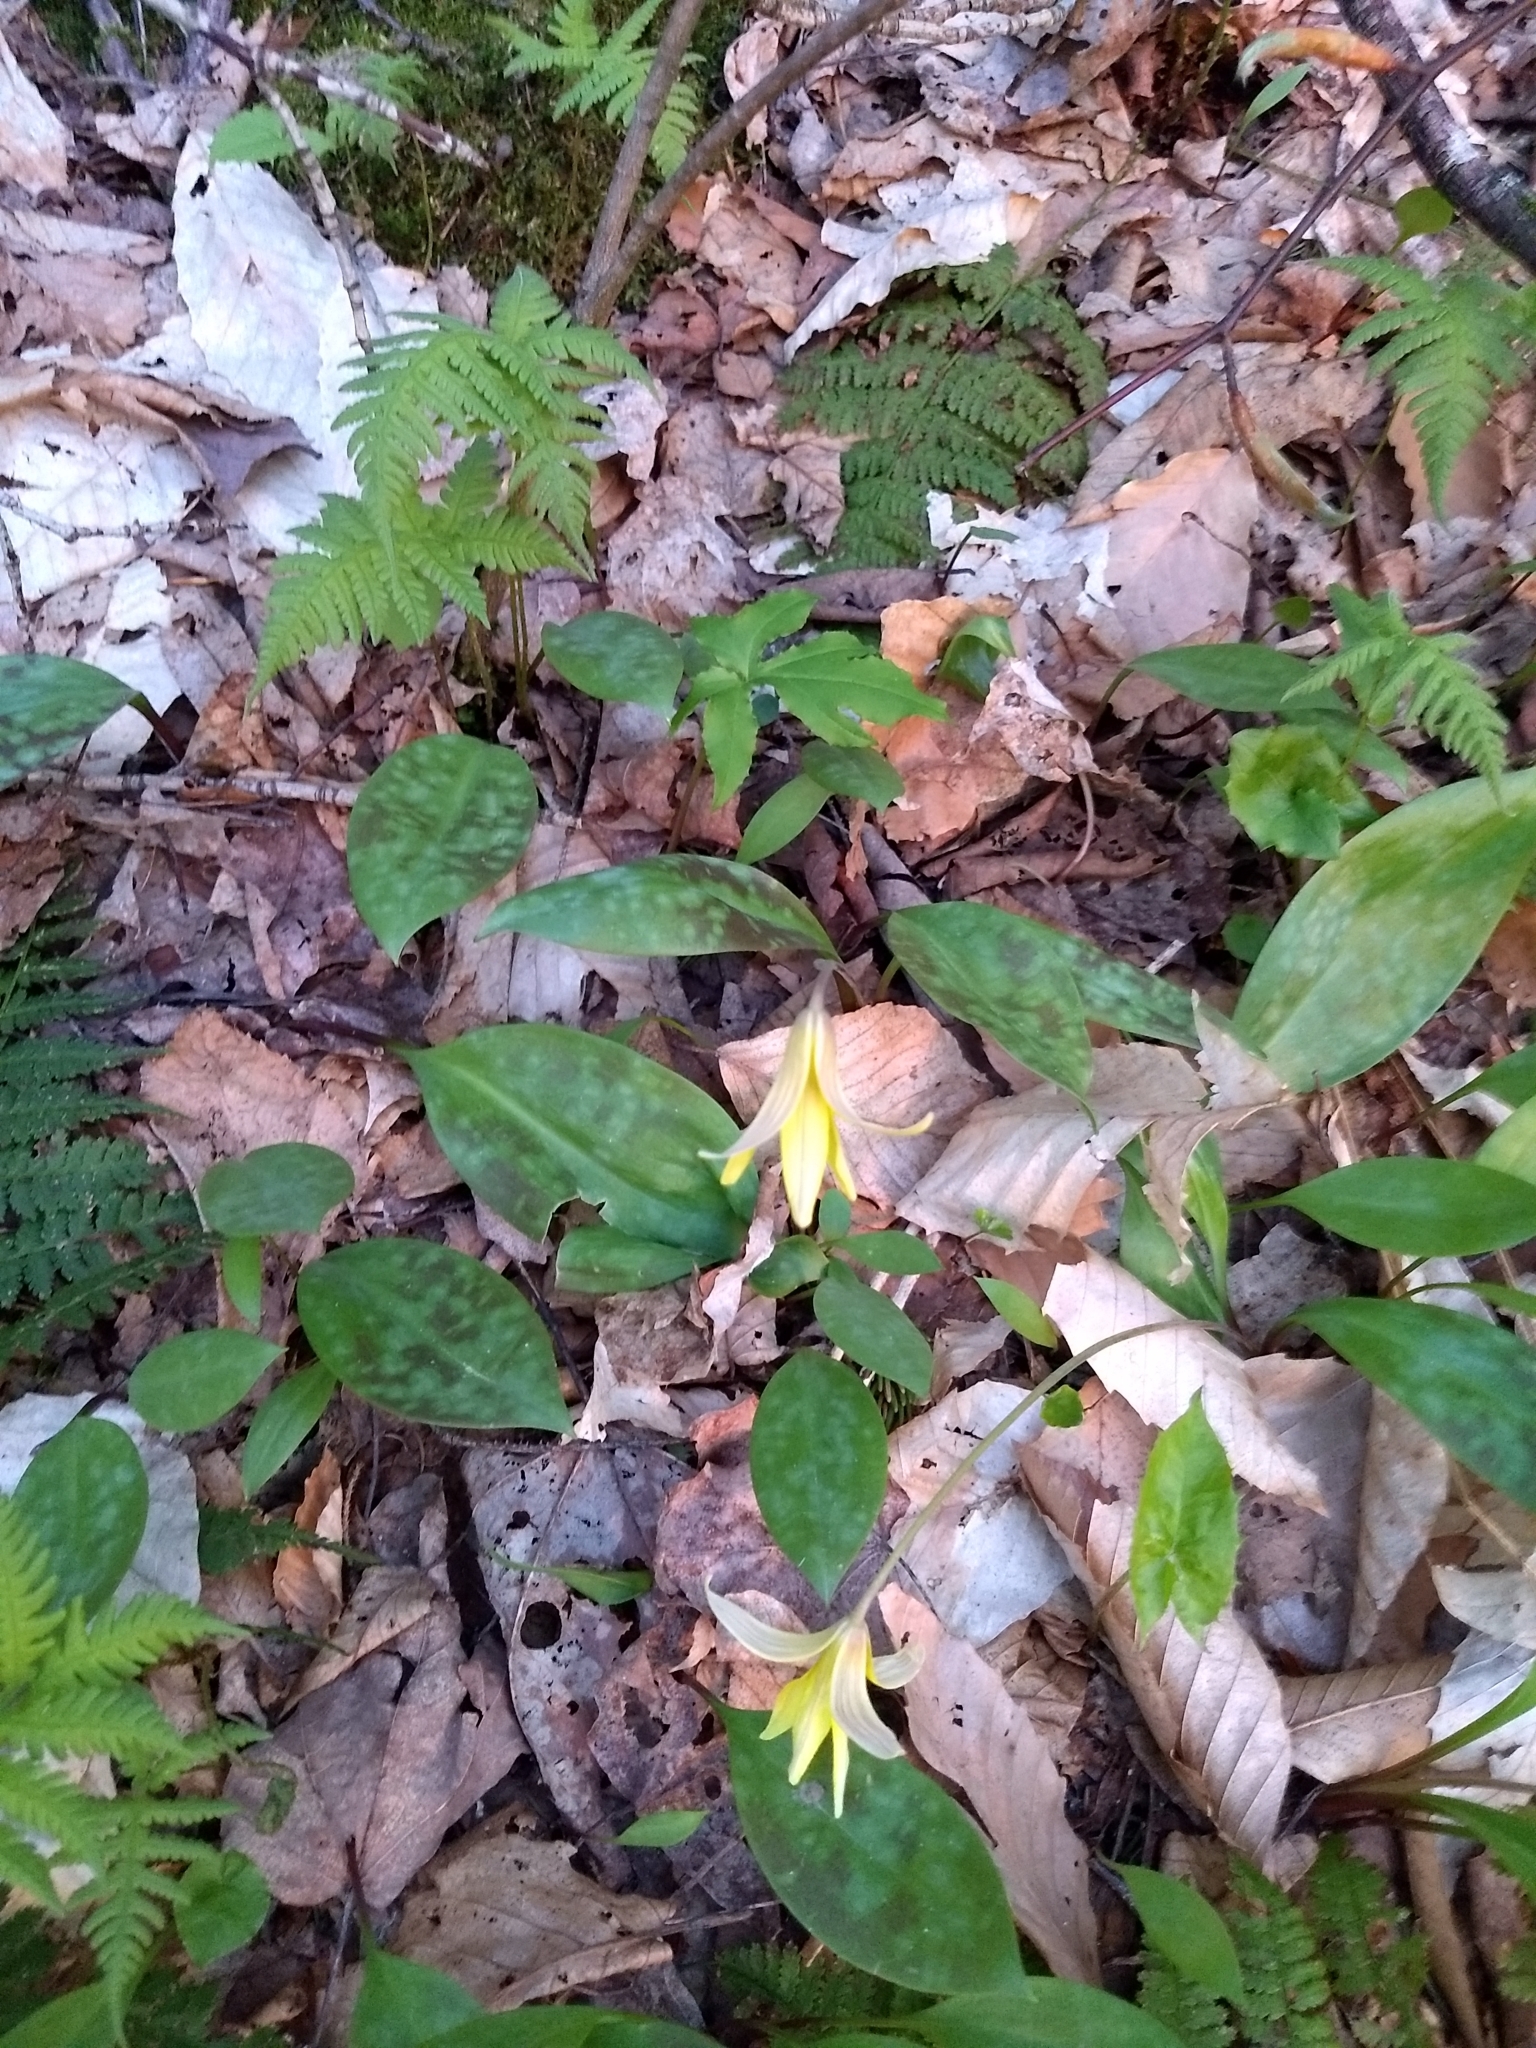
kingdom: Plantae
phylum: Tracheophyta
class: Liliopsida
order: Liliales
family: Liliaceae
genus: Erythronium
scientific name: Erythronium americanum
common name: Yellow adder's-tongue
